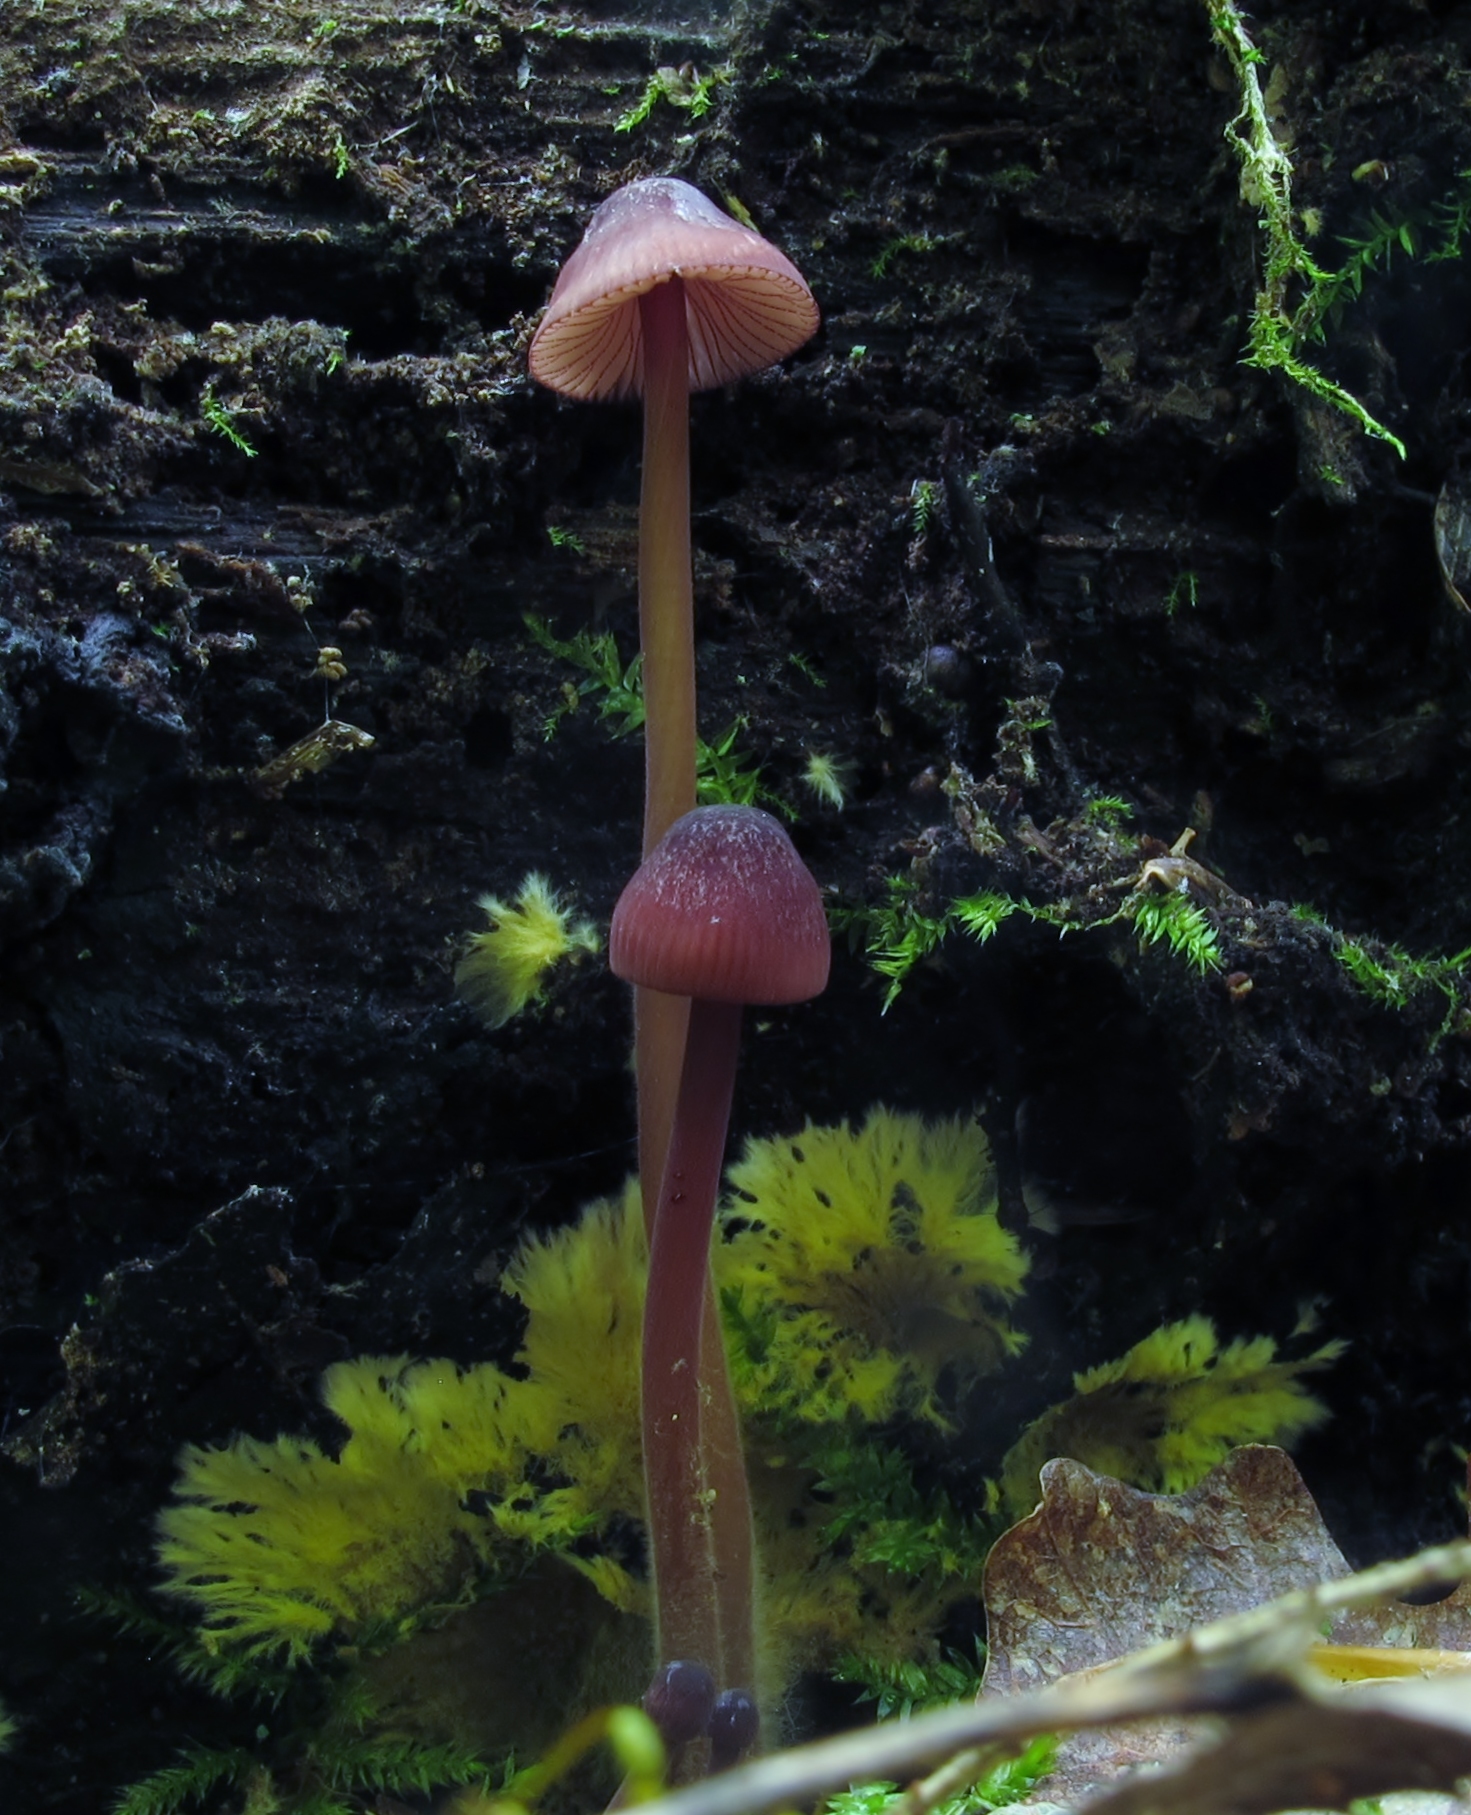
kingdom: Fungi
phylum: Basidiomycota
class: Agaricomycetes
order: Agaricales
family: Mycenaceae
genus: Mycena
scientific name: Mycena sanguinolenta
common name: Bleeding bonnet
